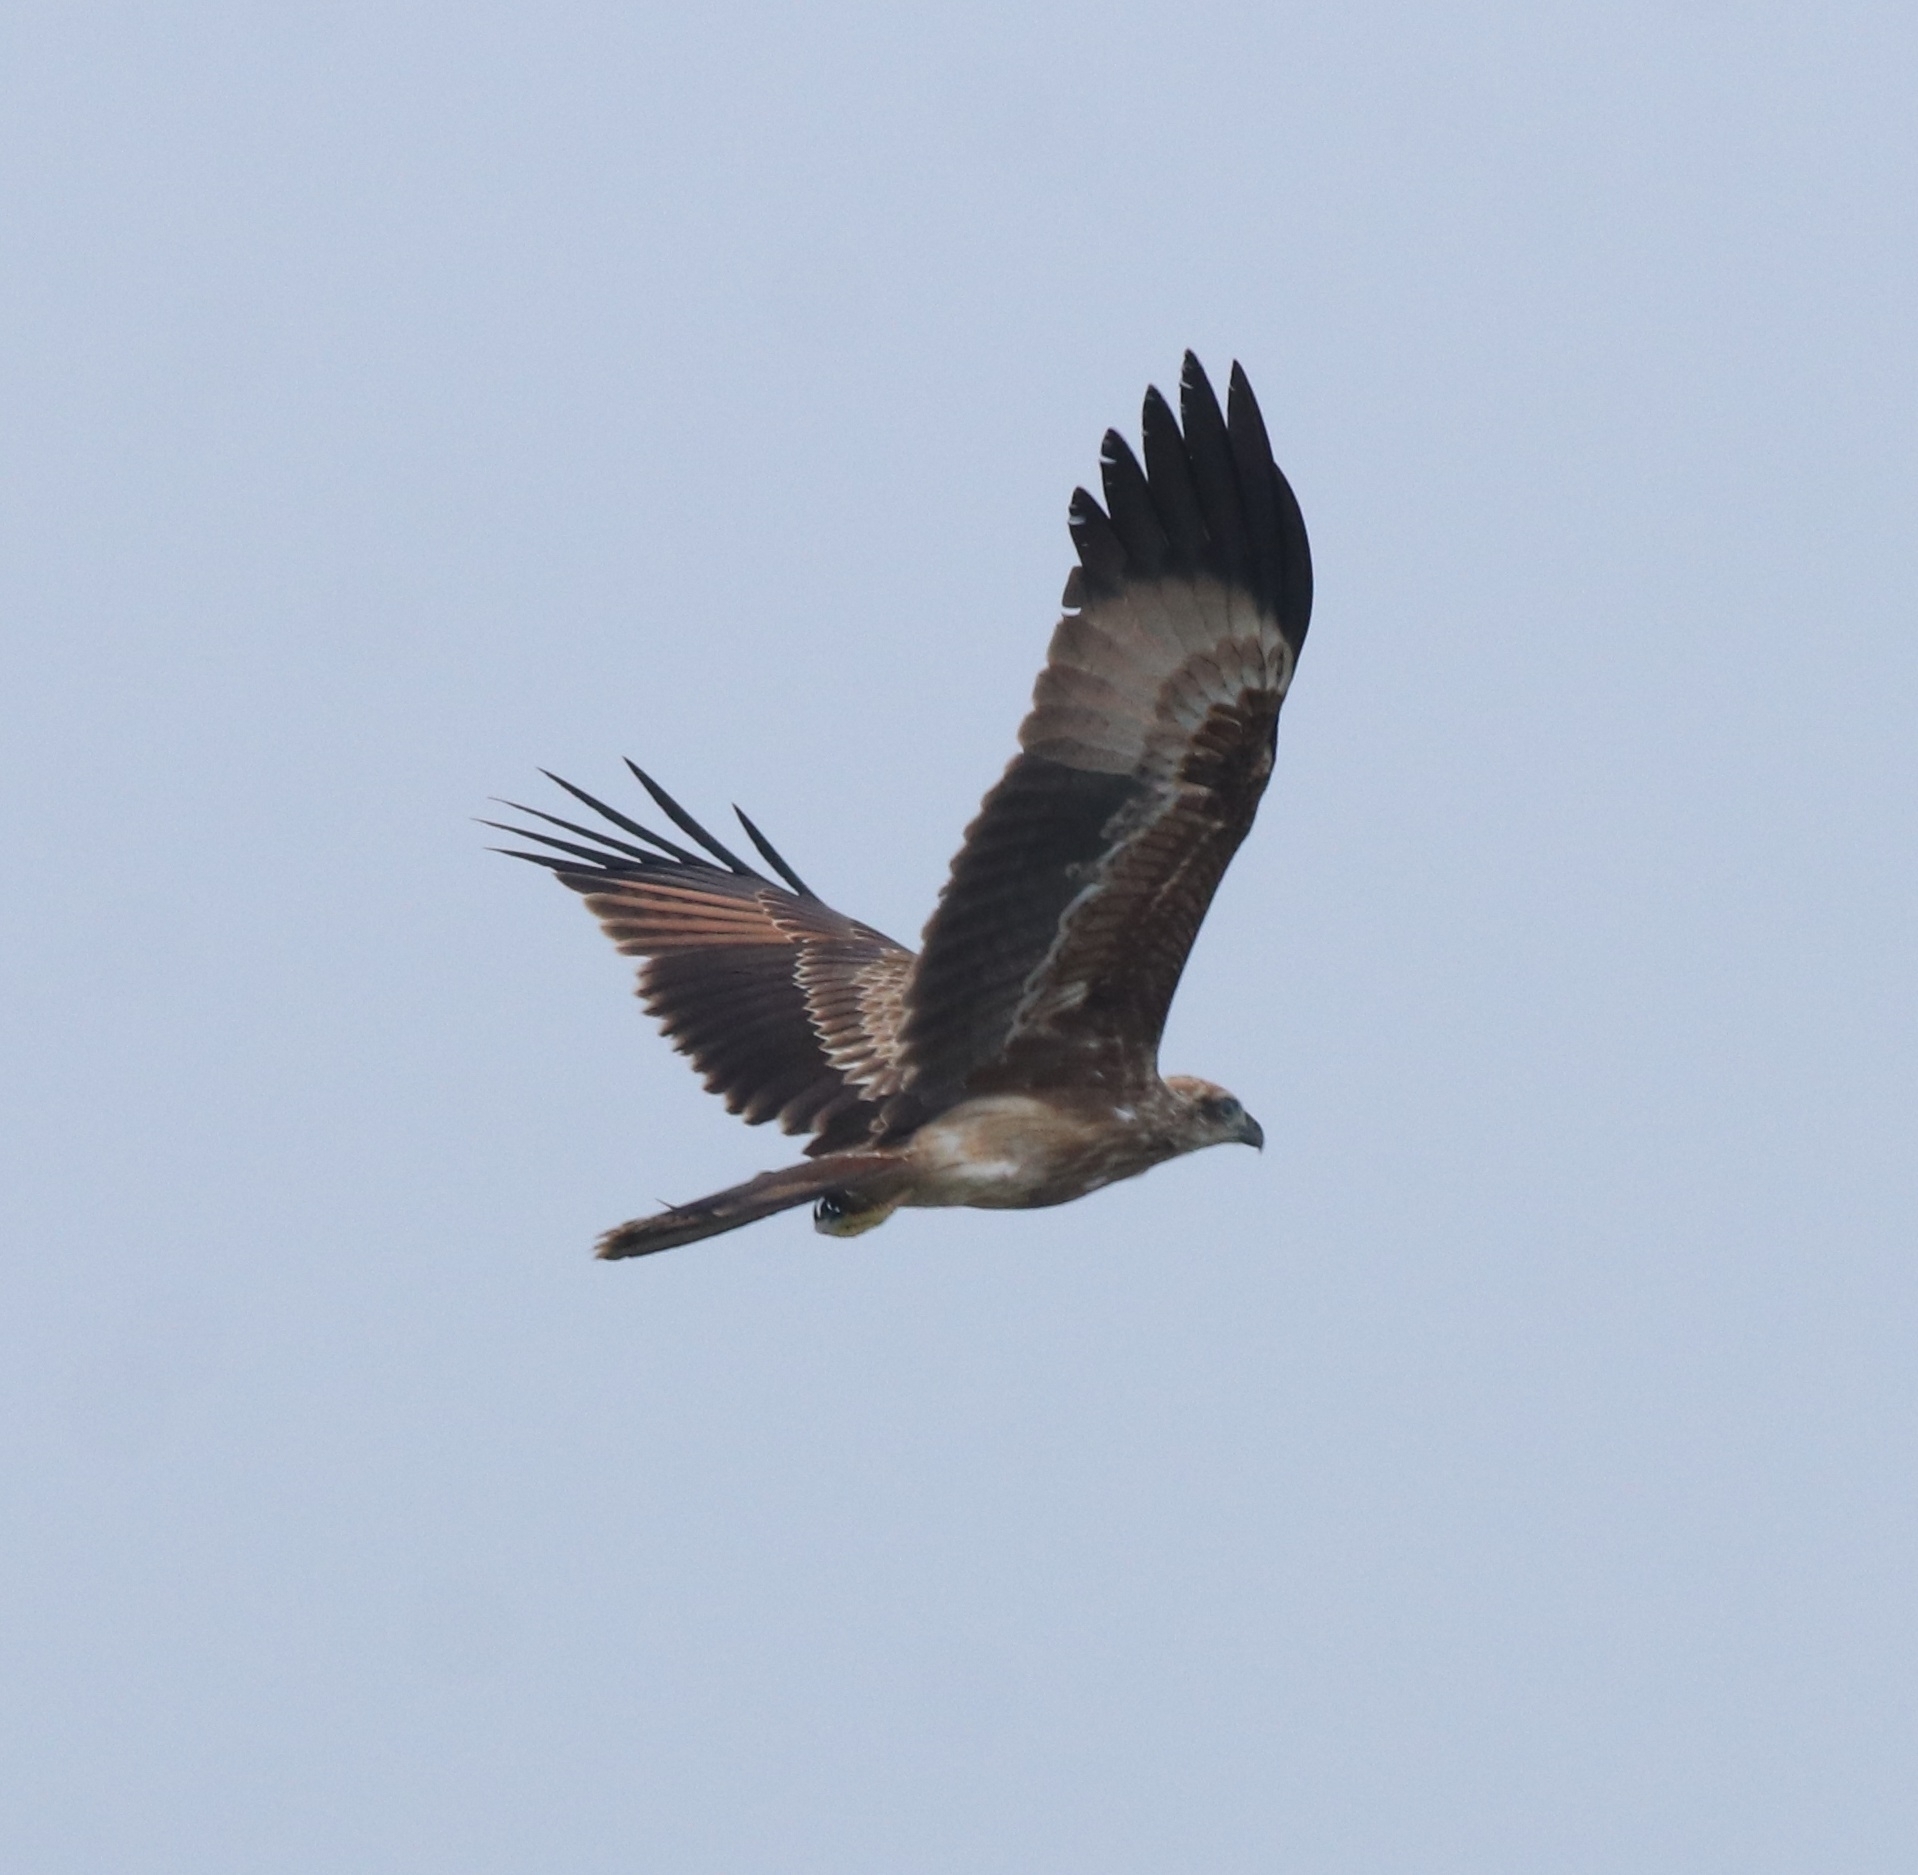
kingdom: Animalia
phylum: Chordata
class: Aves
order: Accipitriformes
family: Accipitridae
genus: Haliastur
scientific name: Haliastur indus
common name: Brahminy kite
